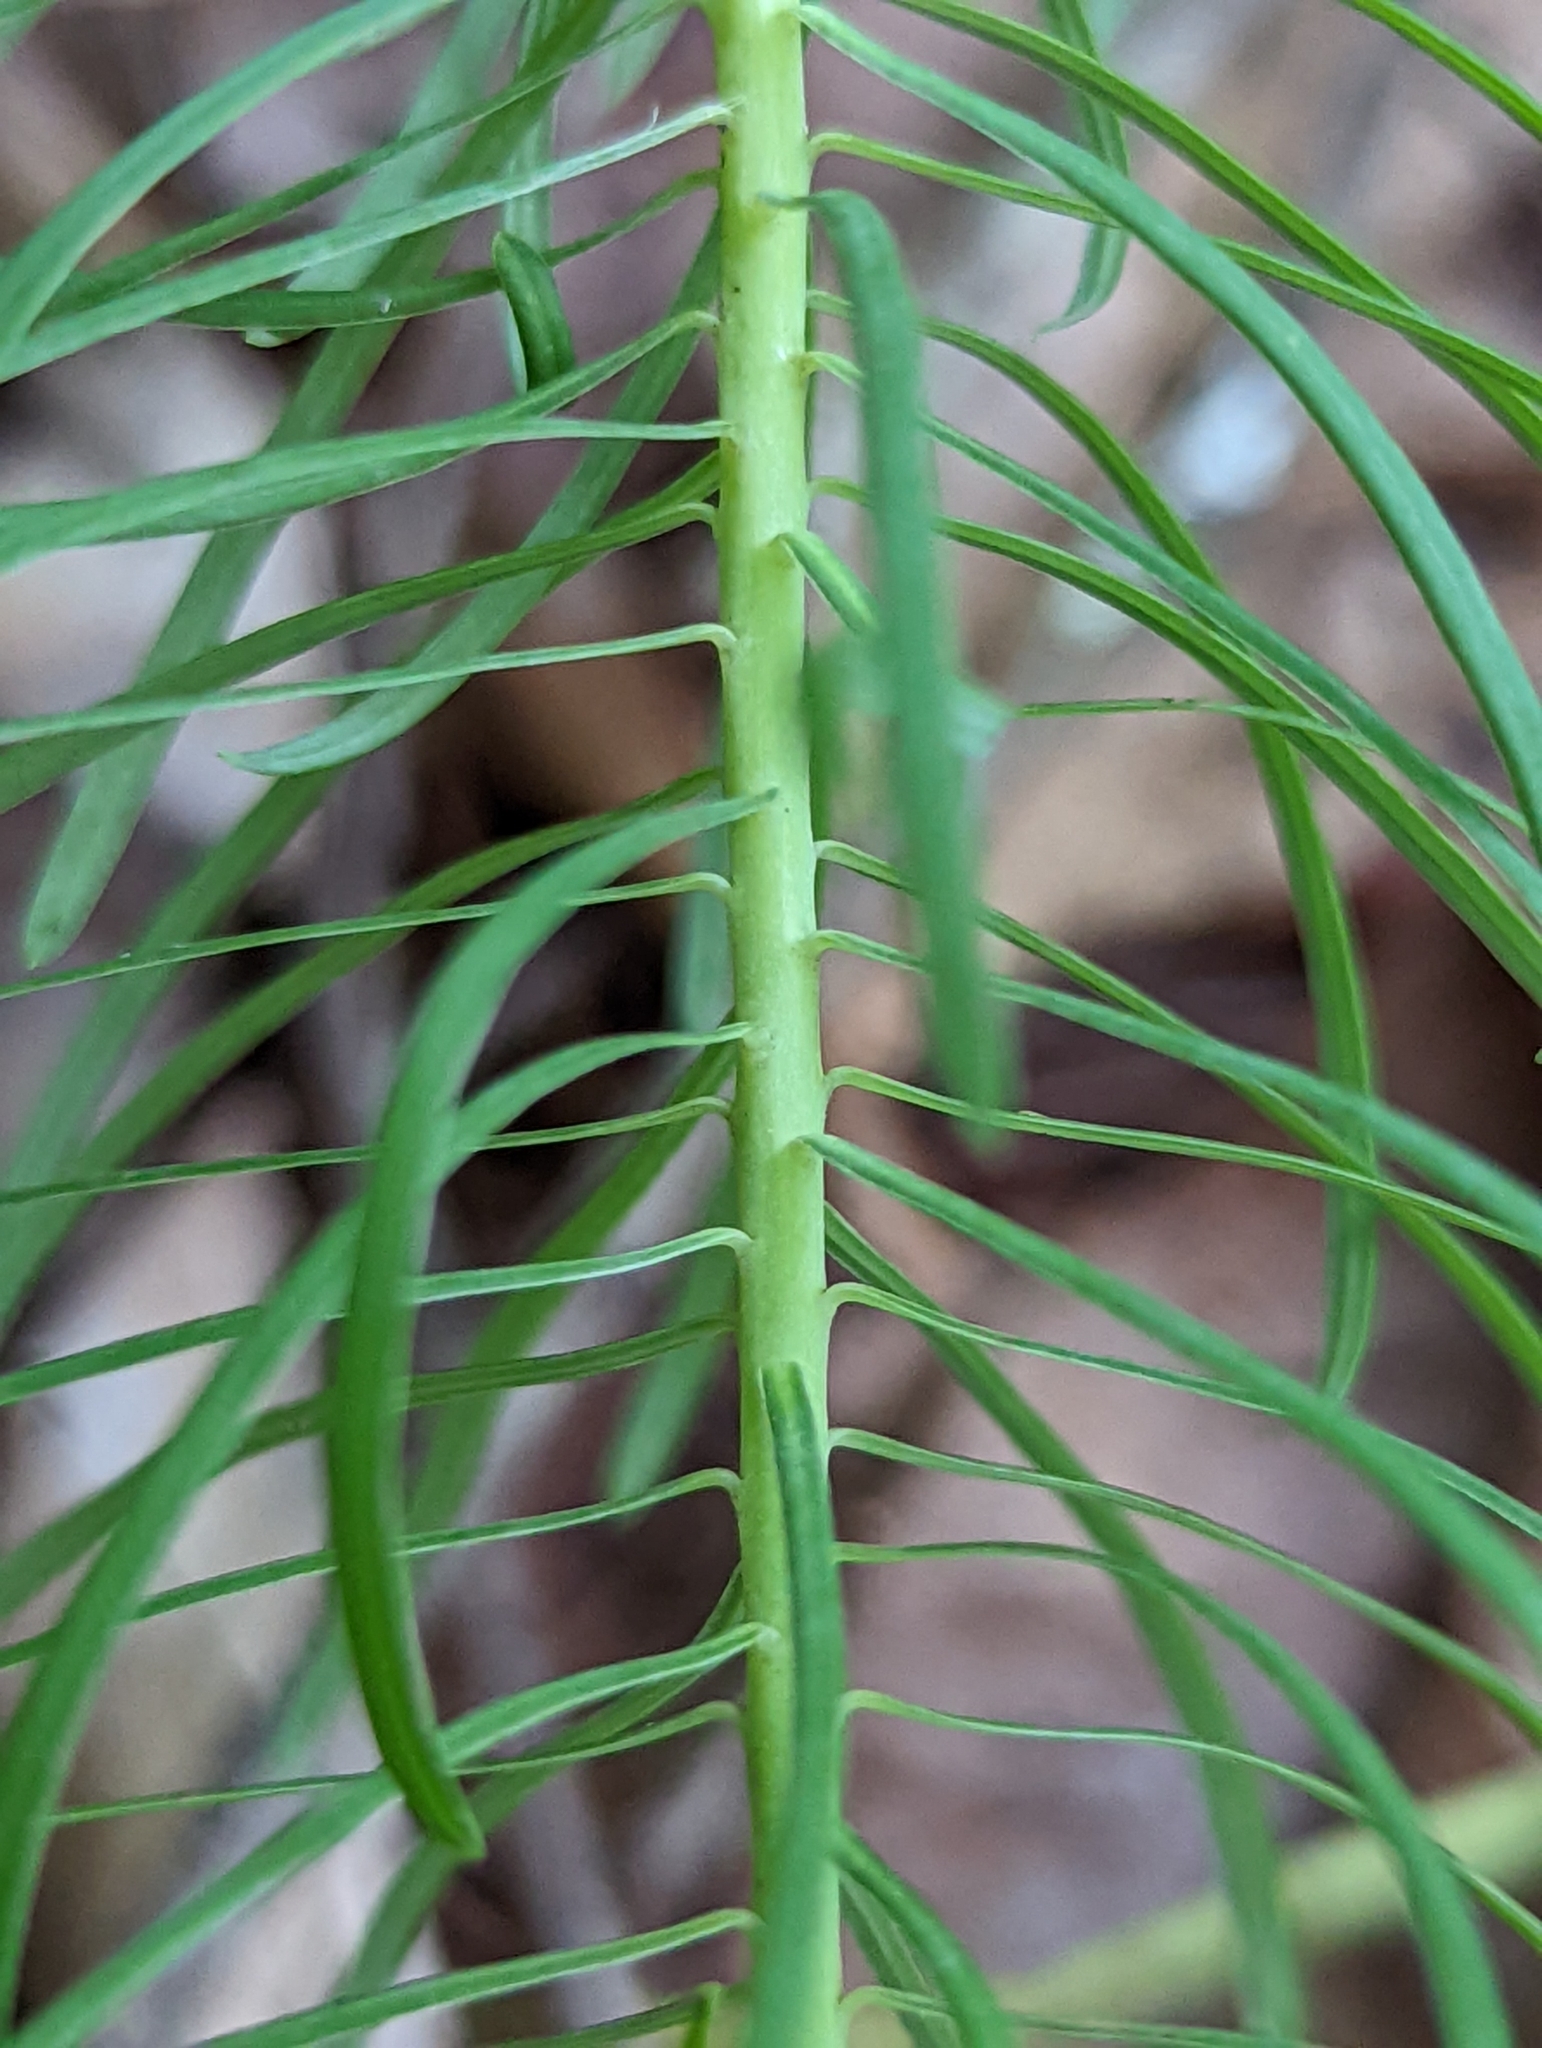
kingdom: Plantae
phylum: Tracheophyta
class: Magnoliopsida
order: Malpighiales
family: Euphorbiaceae
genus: Euphorbia
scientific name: Euphorbia cyparissias
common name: Cypress spurge
